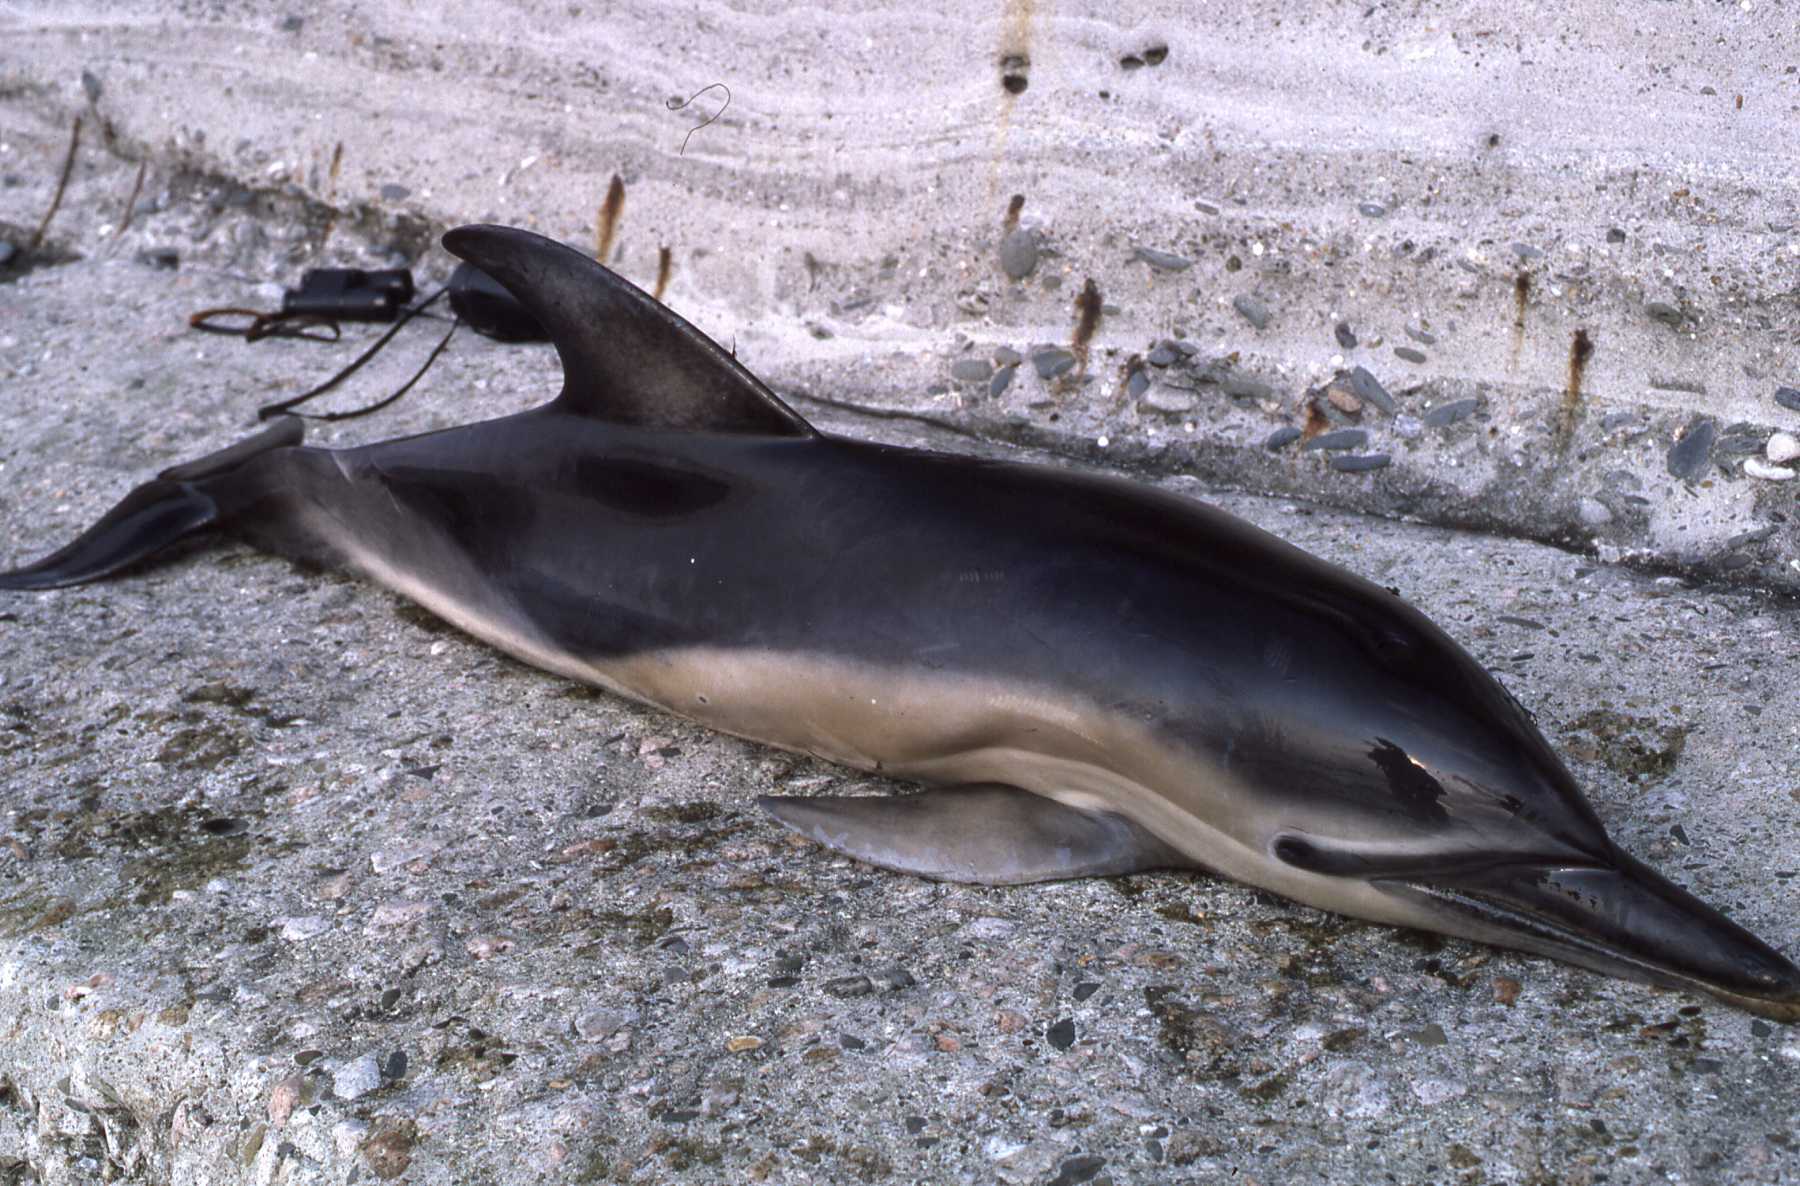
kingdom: Animalia
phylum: Chordata
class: Mammalia
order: Cetacea
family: Delphinidae
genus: Delphinus
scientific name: Delphinus delphis
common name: Common dolphin
